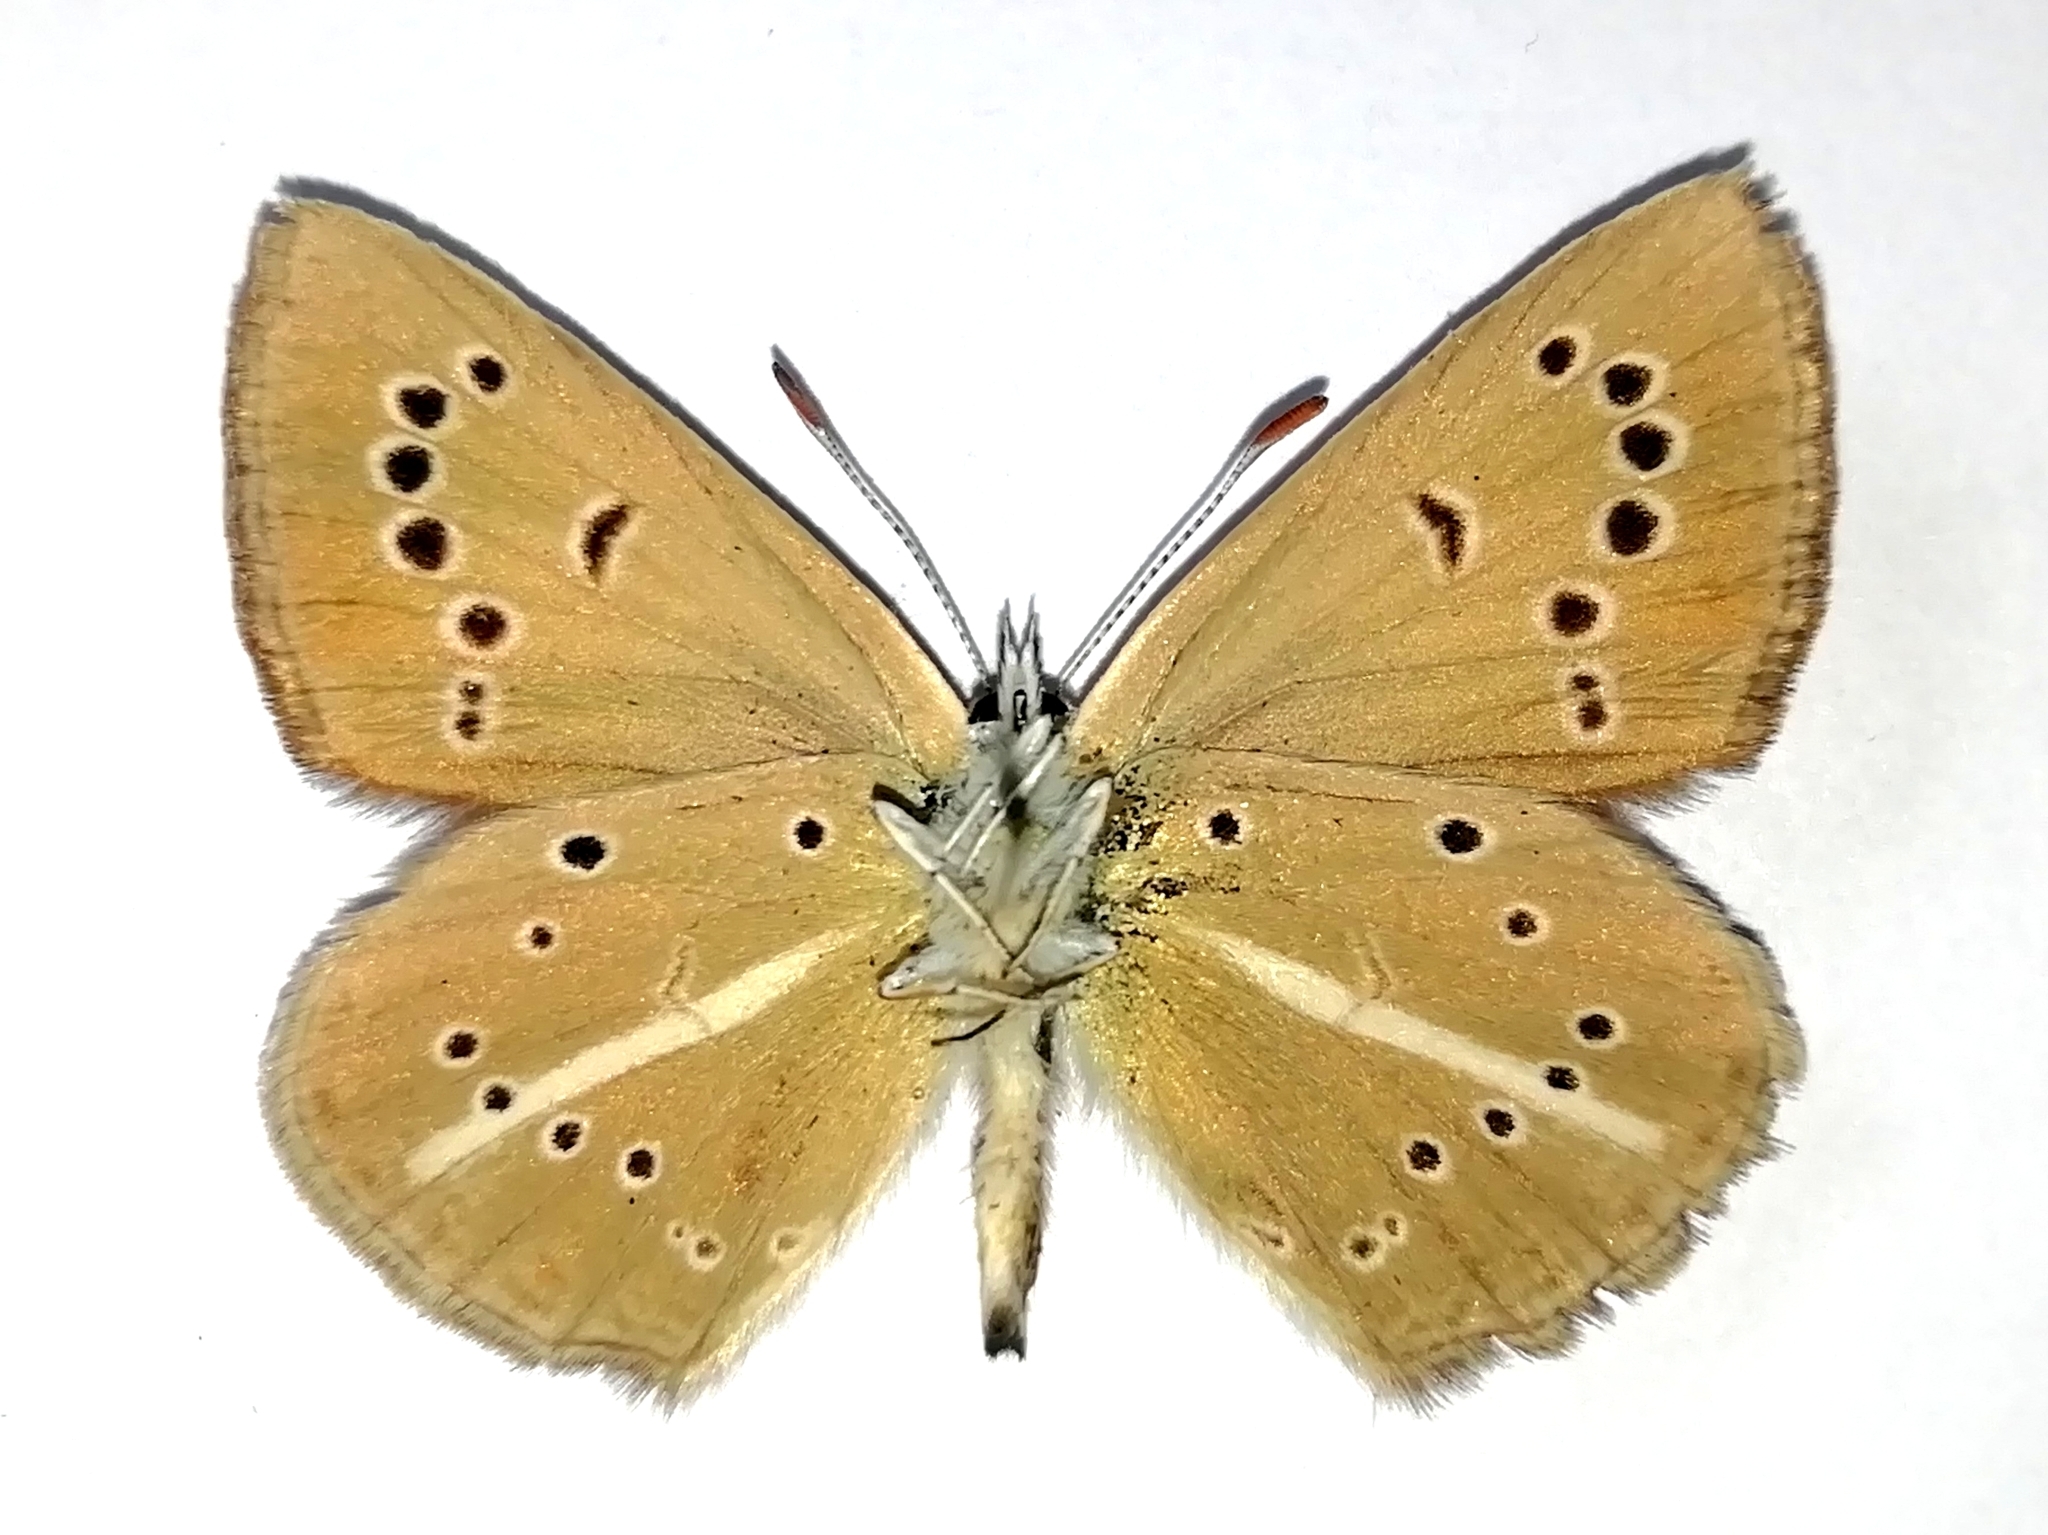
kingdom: Animalia
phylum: Arthropoda
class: Insecta
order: Lepidoptera
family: Lycaenidae
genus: Polyommatus
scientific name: Polyommatus ripartii
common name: Ripart's anomalous blue
